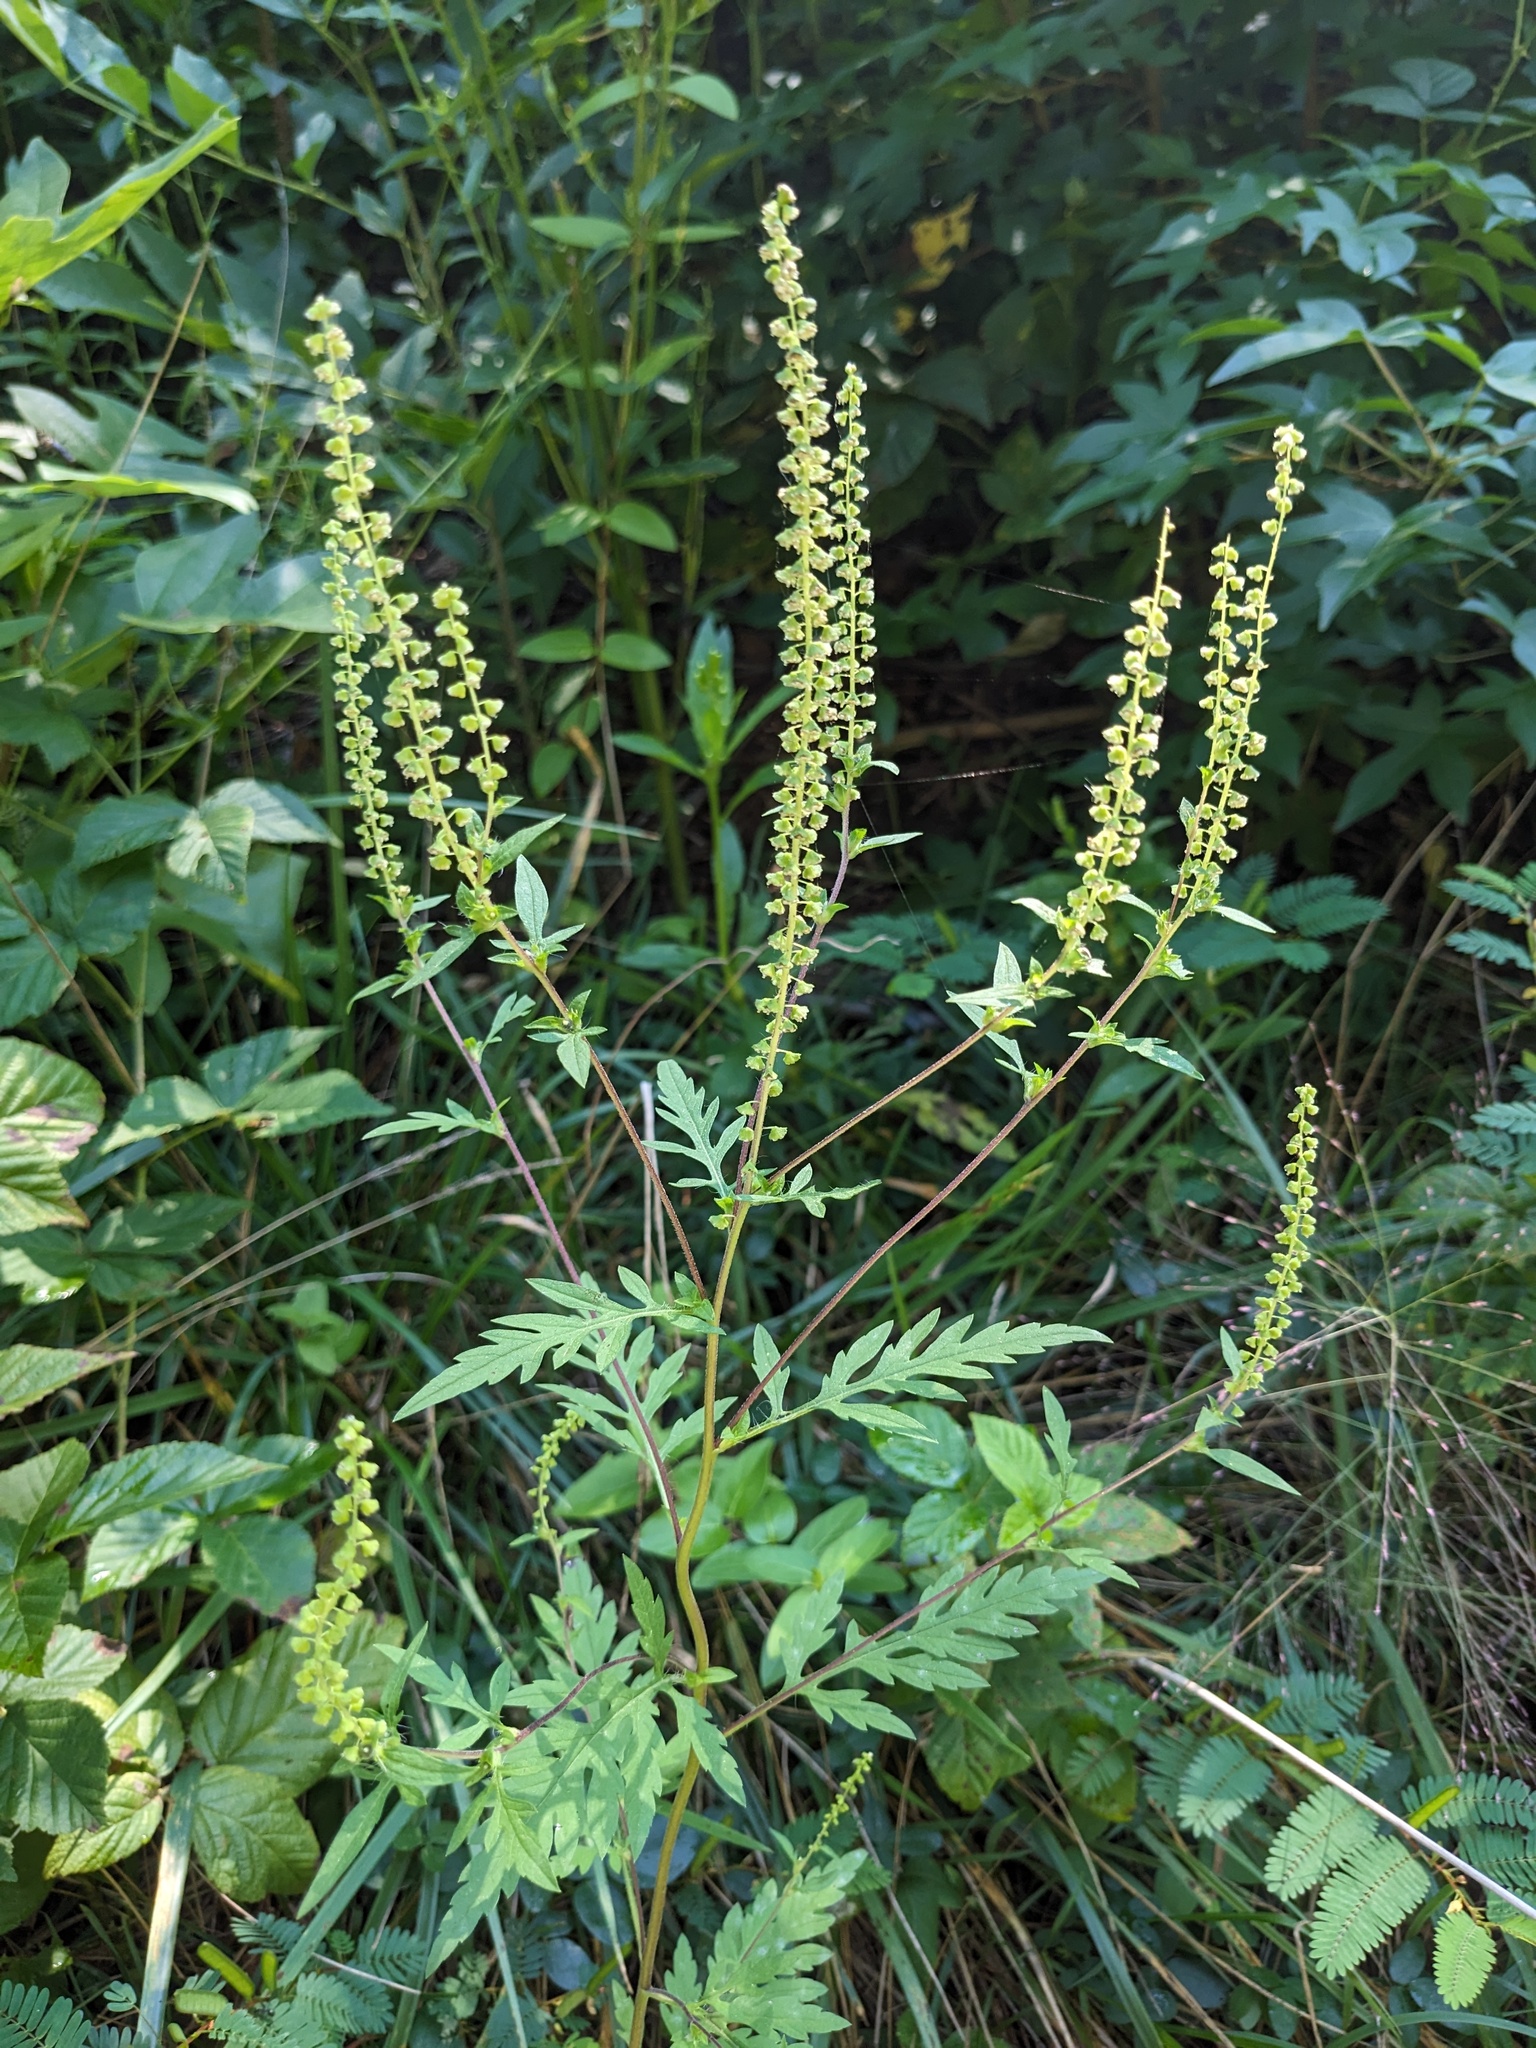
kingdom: Plantae
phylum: Tracheophyta
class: Magnoliopsida
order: Asterales
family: Asteraceae
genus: Ambrosia
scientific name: Ambrosia artemisiifolia
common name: Annual ragweed
